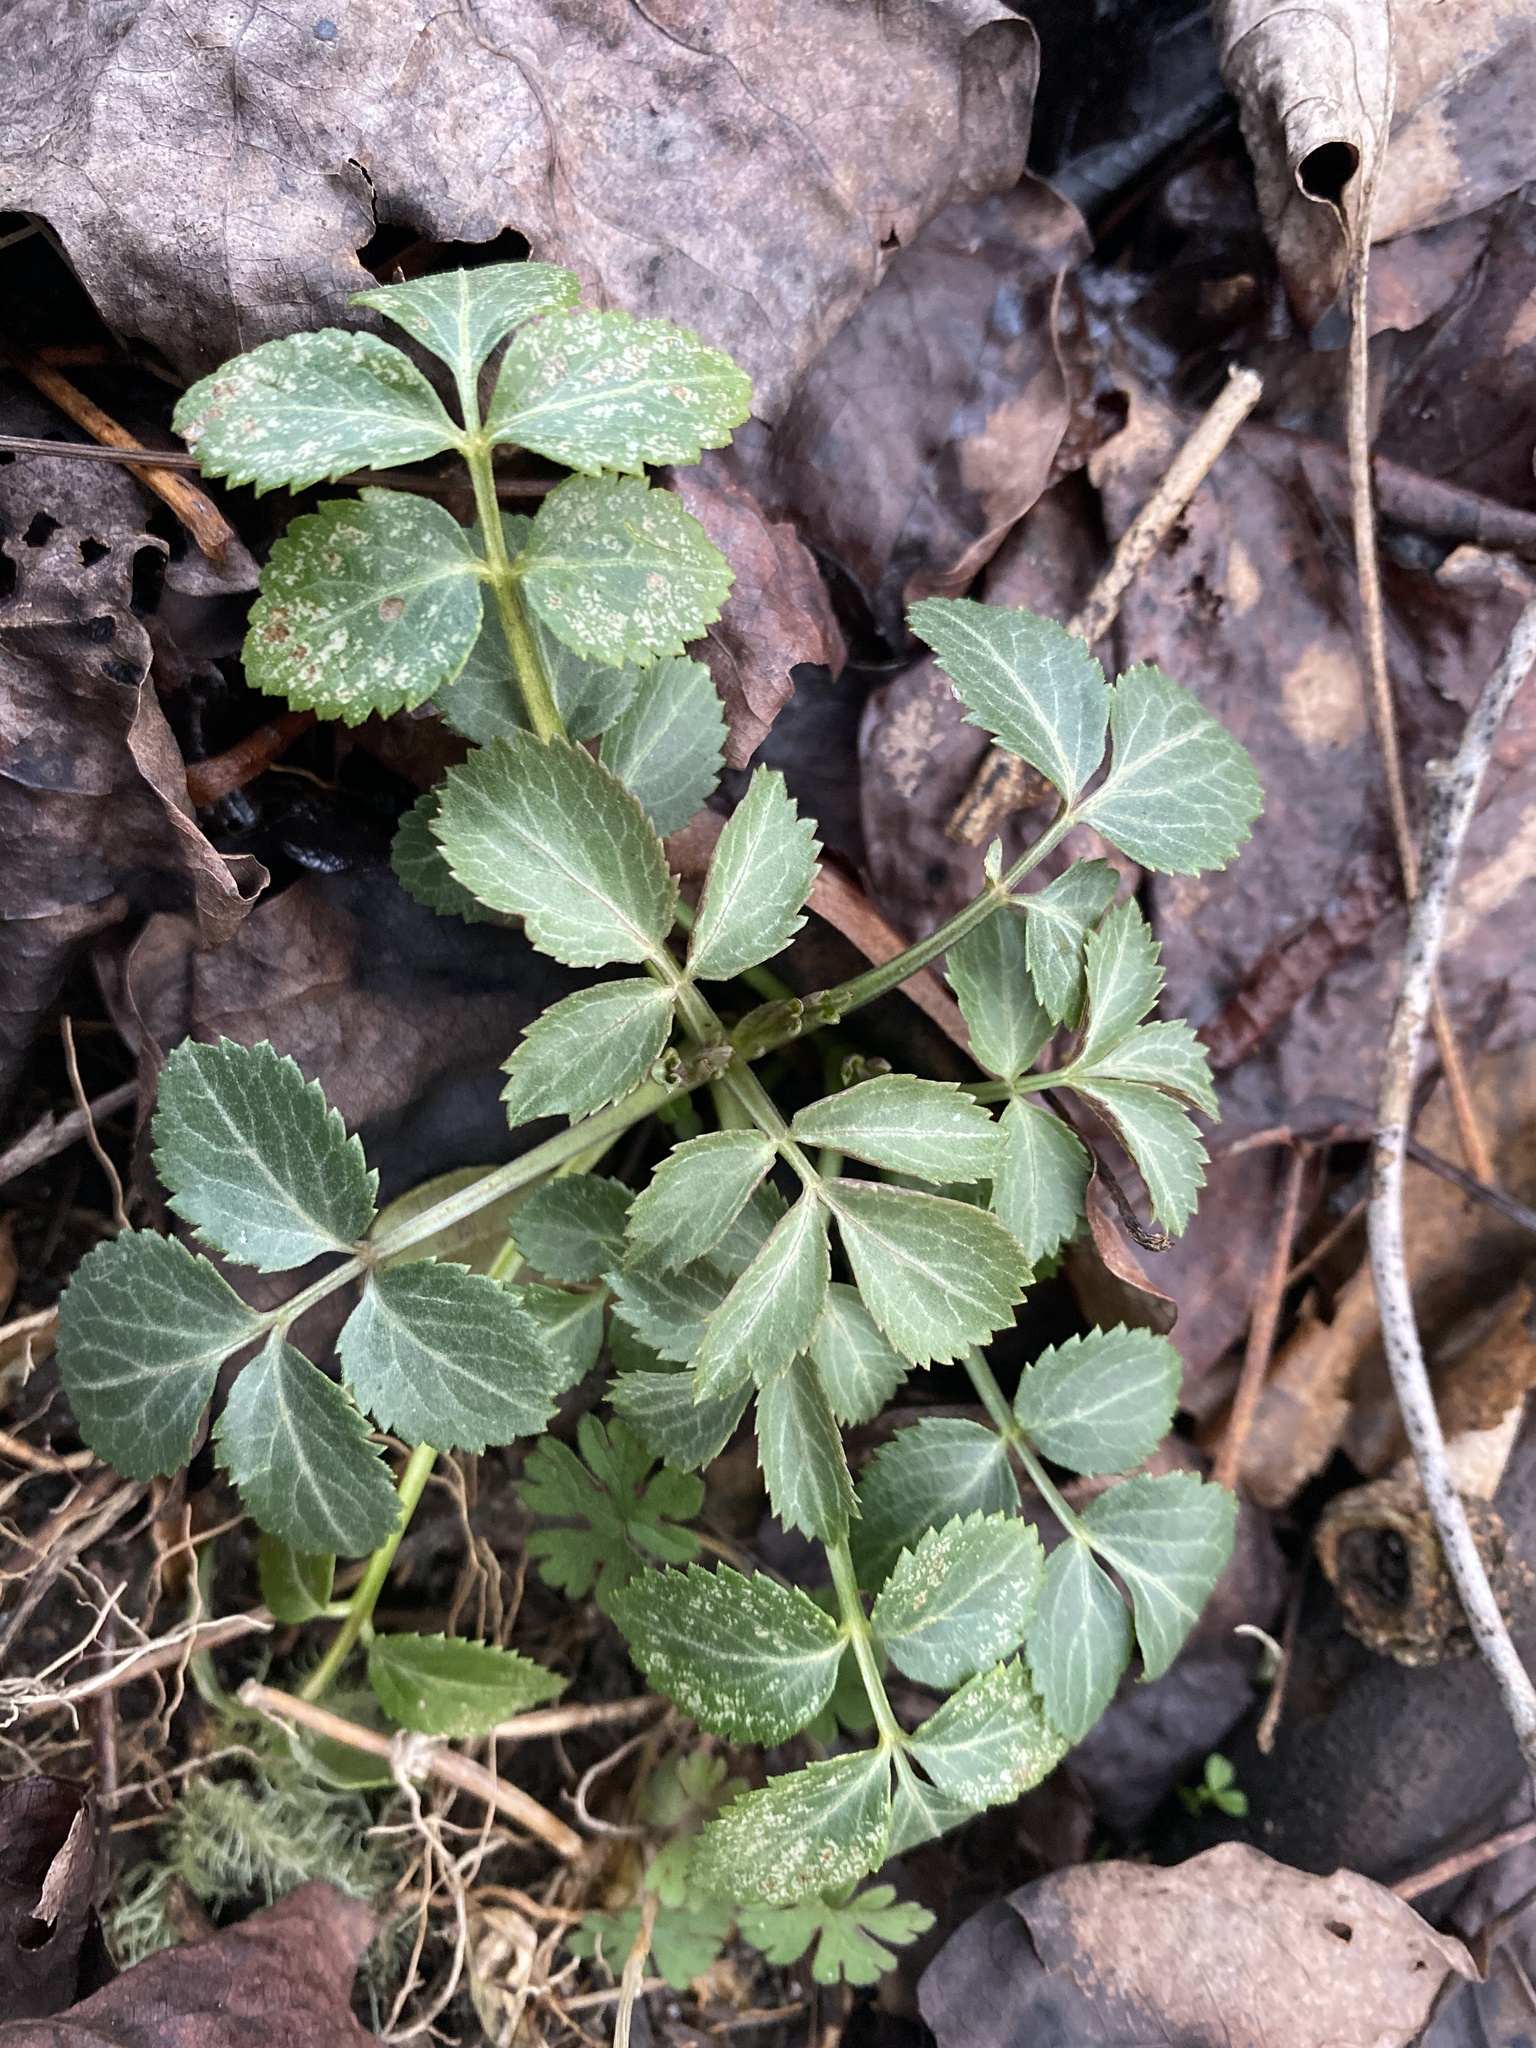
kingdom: Plantae
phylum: Tracheophyta
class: Magnoliopsida
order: Dipsacales
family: Viburnaceae
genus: Sambucus
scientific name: Sambucus canadensis
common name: American elder
